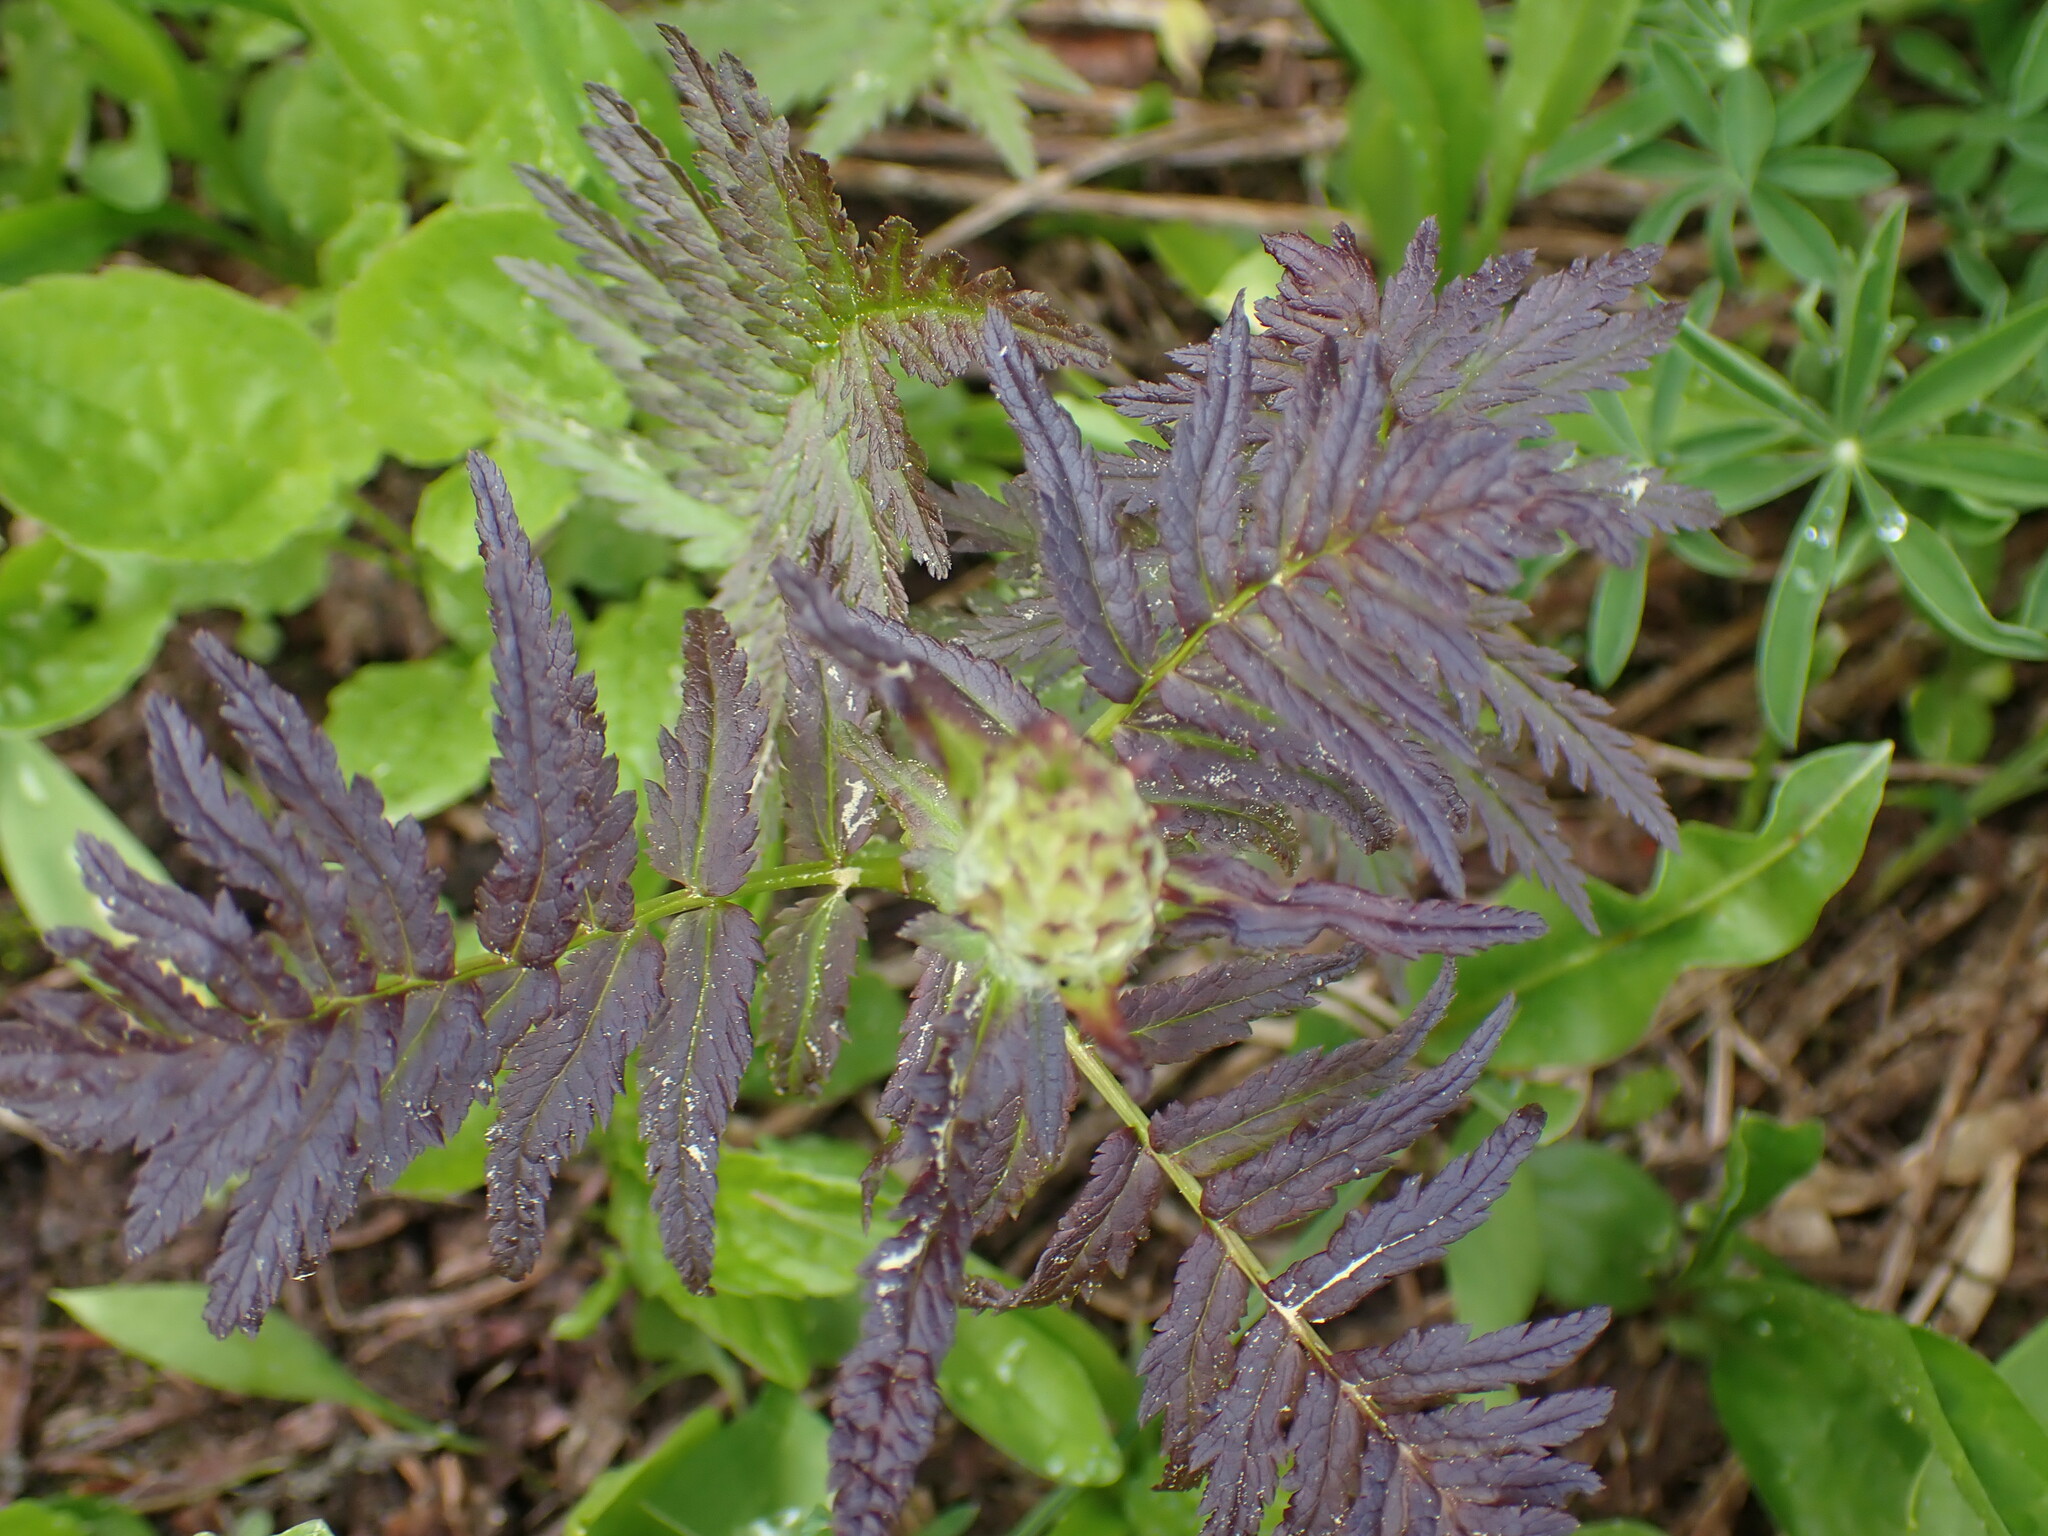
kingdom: Plantae
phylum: Tracheophyta
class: Magnoliopsida
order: Lamiales
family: Orobanchaceae
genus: Pedicularis
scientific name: Pedicularis bracteosa
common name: Bracted lousewort
